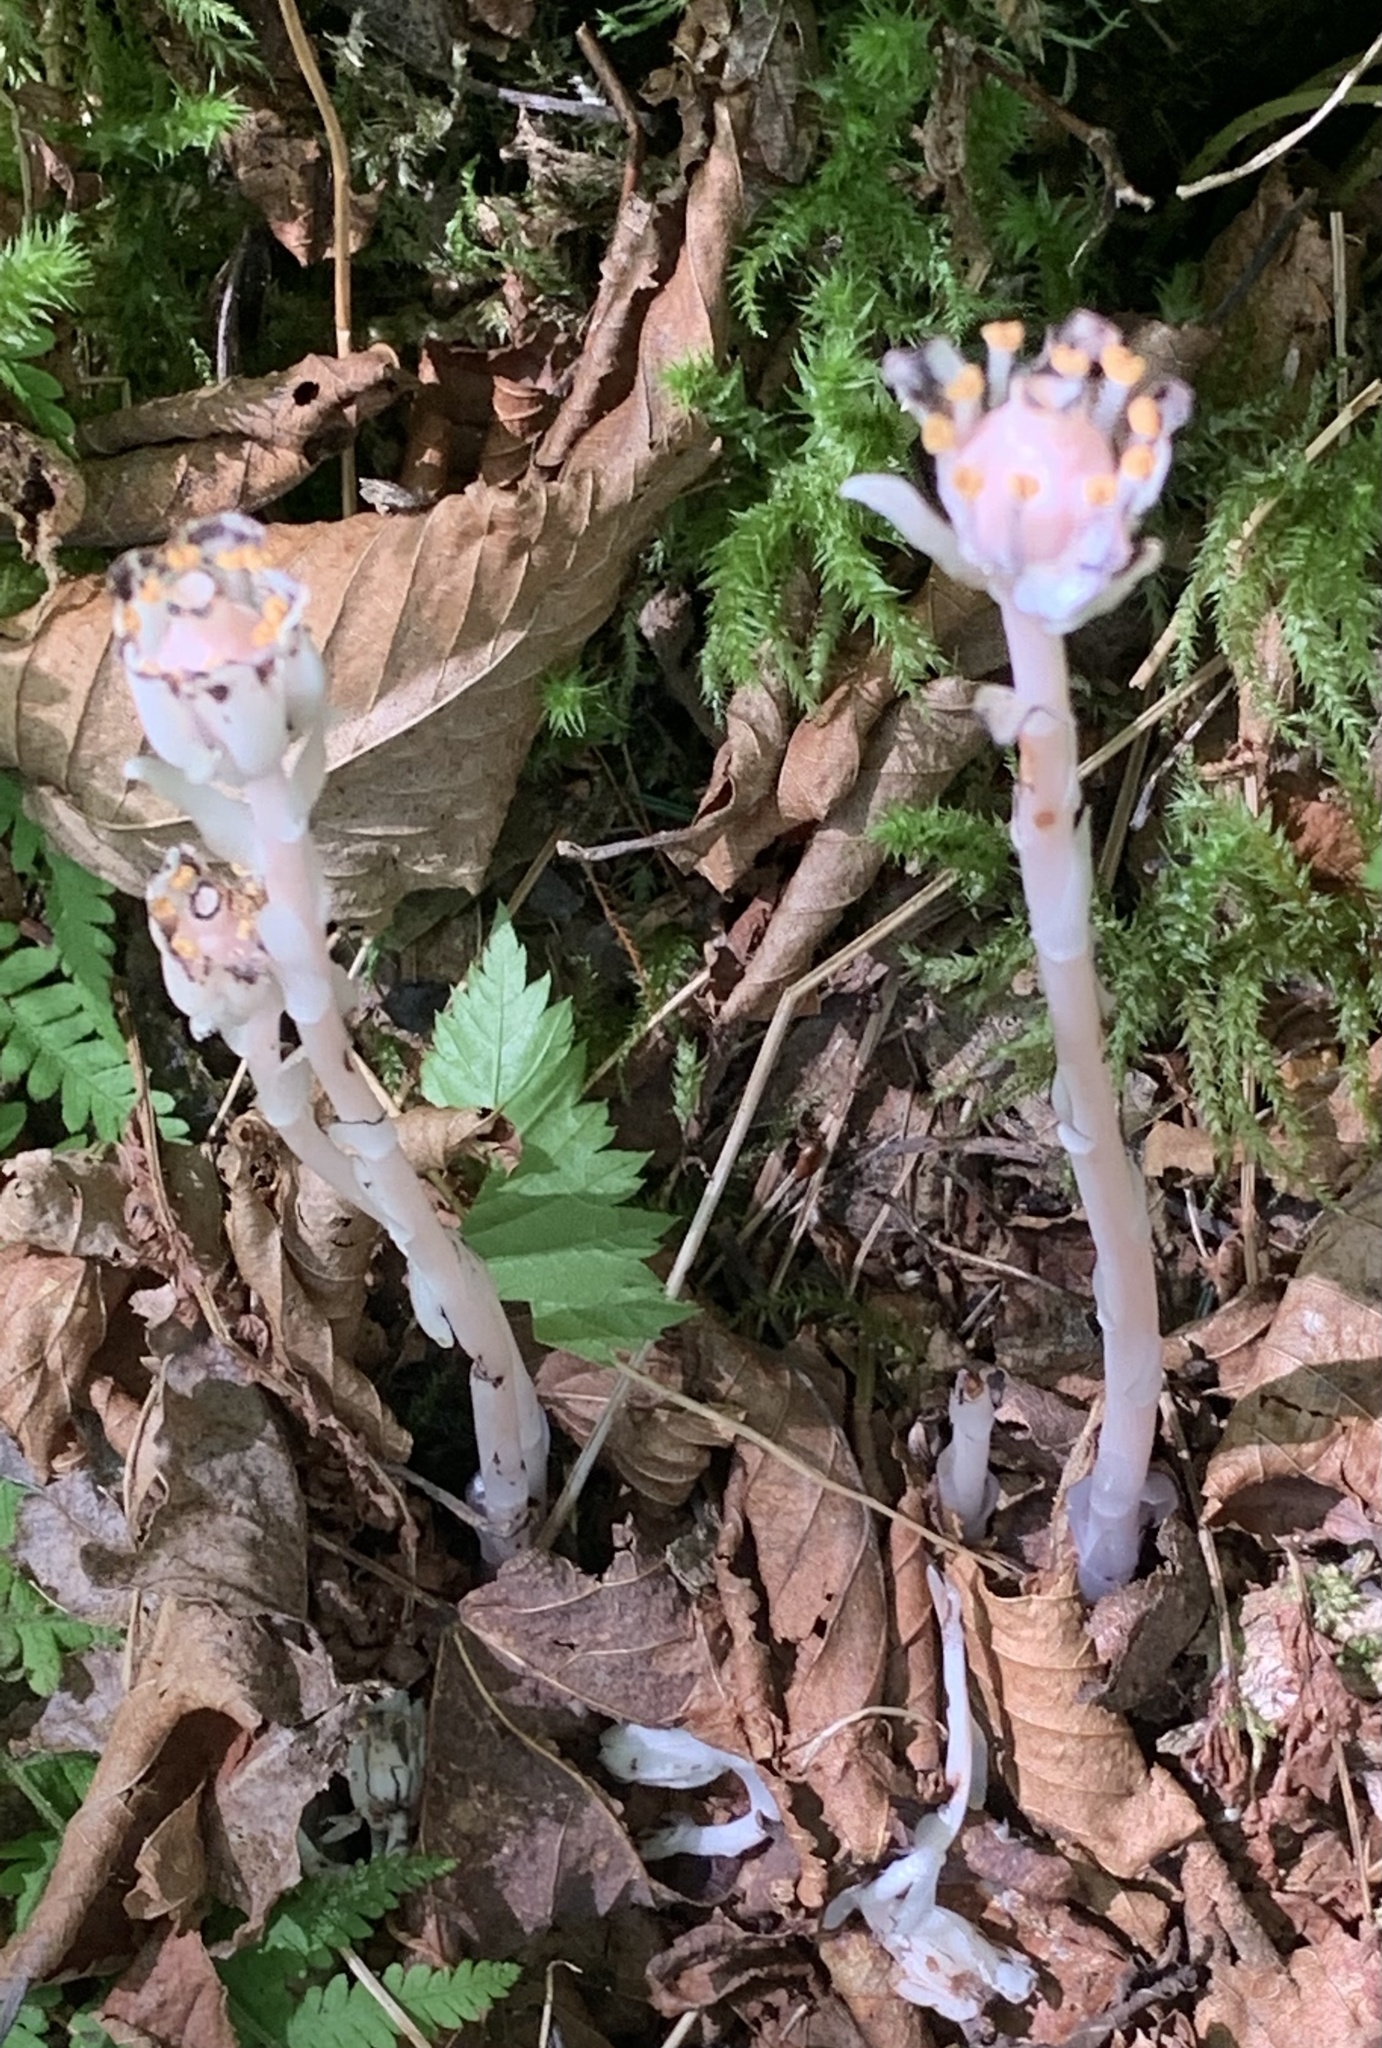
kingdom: Plantae
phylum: Tracheophyta
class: Magnoliopsida
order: Ericales
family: Ericaceae
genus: Monotropa
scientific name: Monotropa uniflora
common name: Convulsion root
